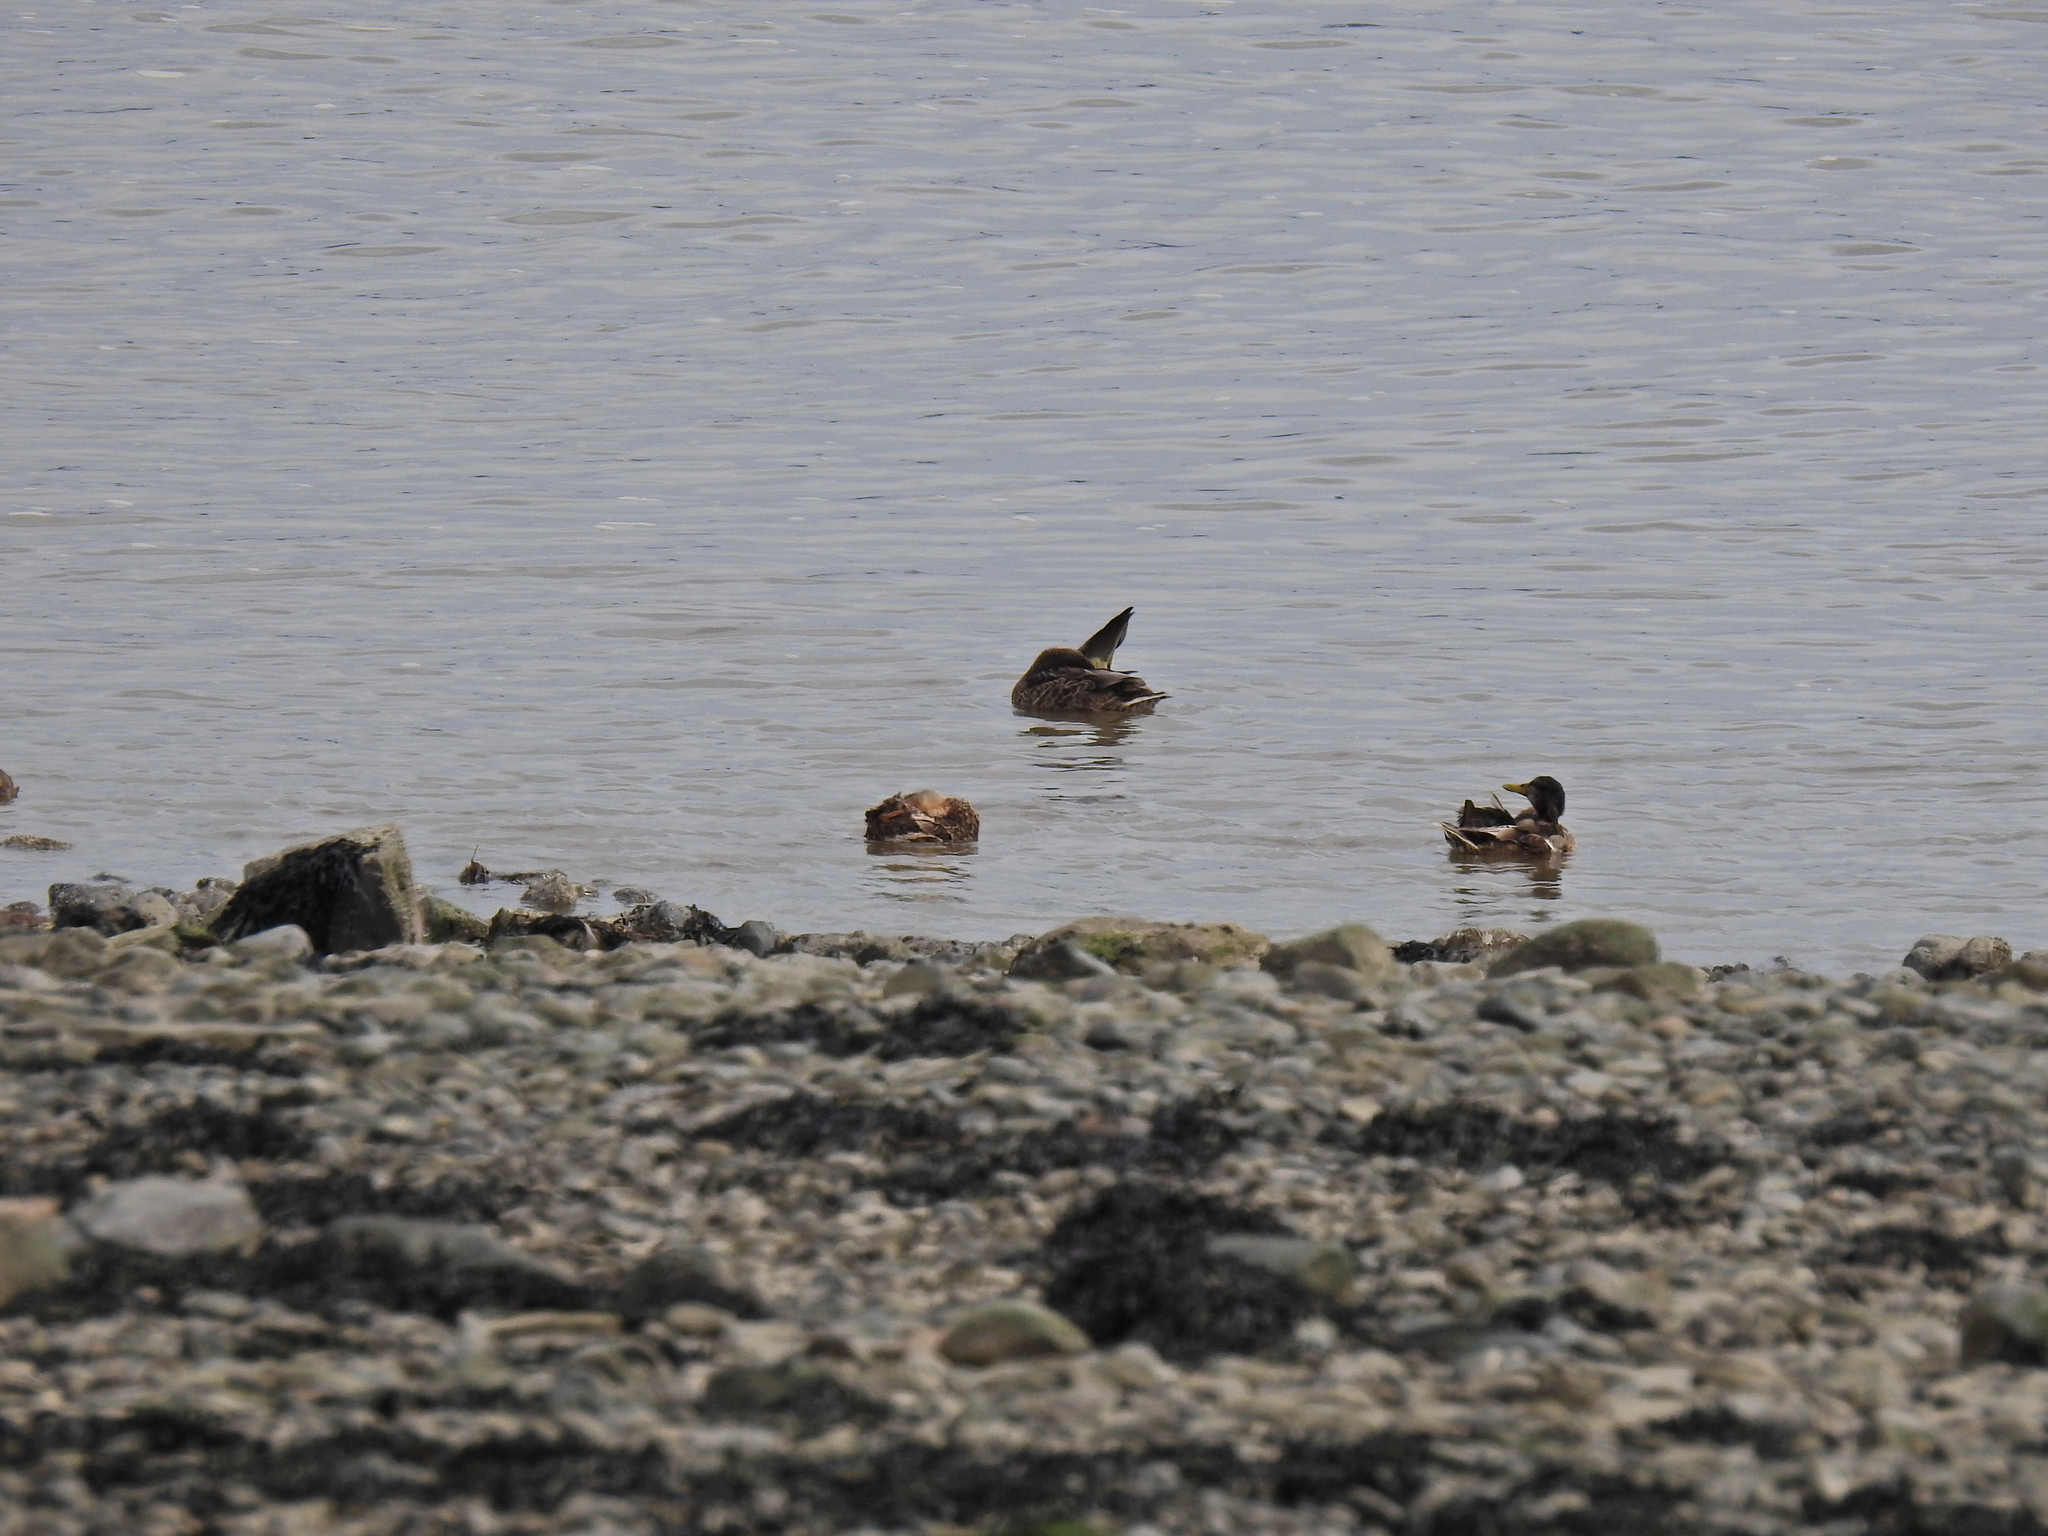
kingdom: Animalia
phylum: Chordata
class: Aves
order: Anseriformes
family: Anatidae
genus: Anas
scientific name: Anas platyrhynchos
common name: Mallard
